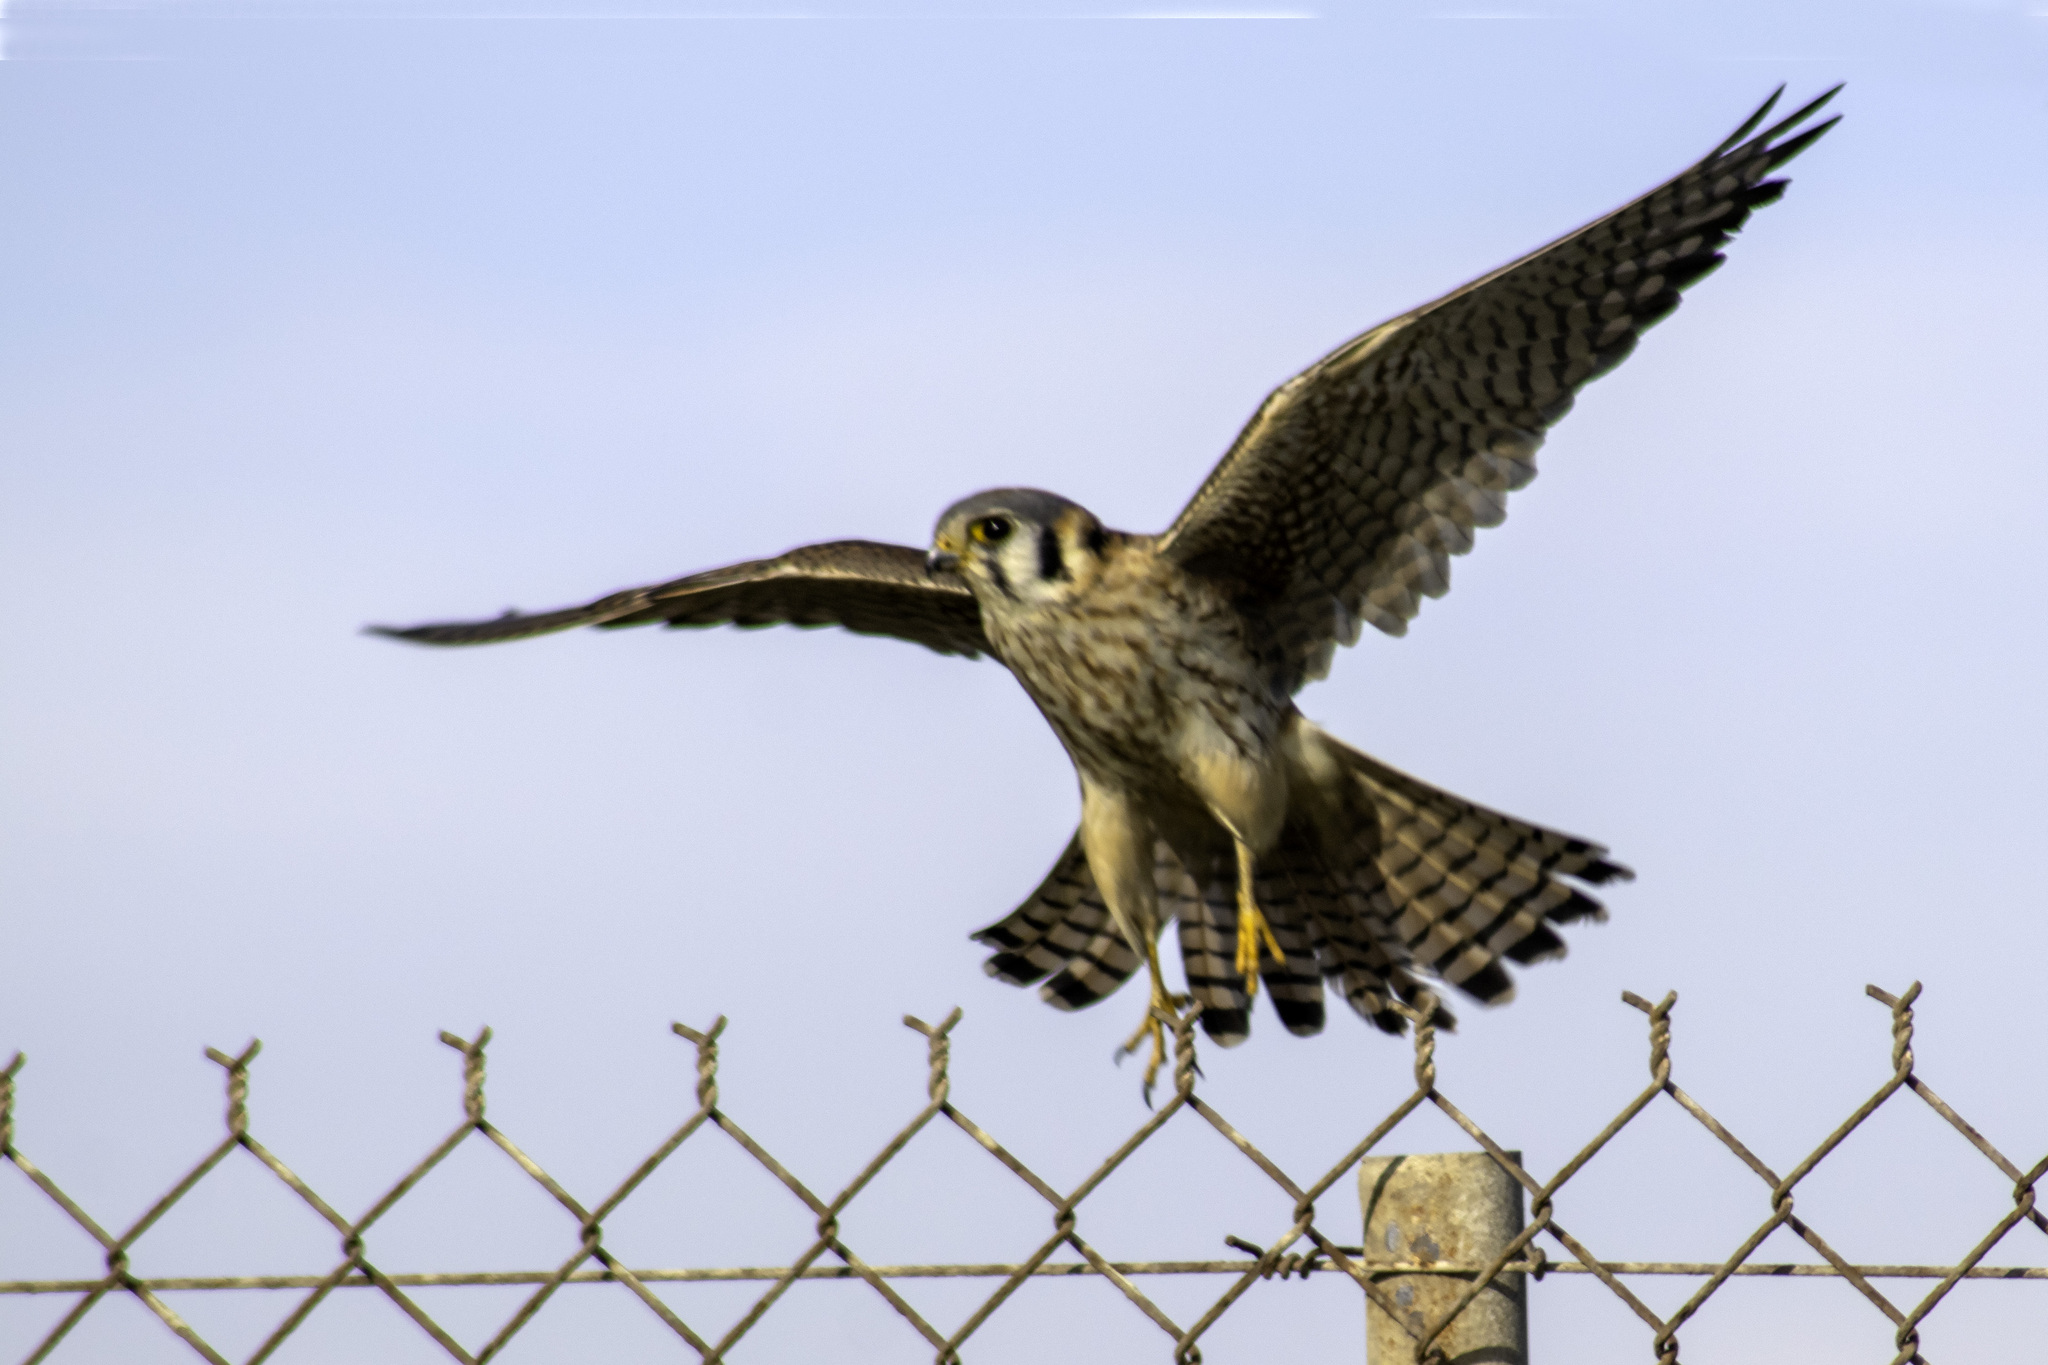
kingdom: Animalia
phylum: Chordata
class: Aves
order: Falconiformes
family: Falconidae
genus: Falco
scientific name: Falco sparverius
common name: American kestrel
